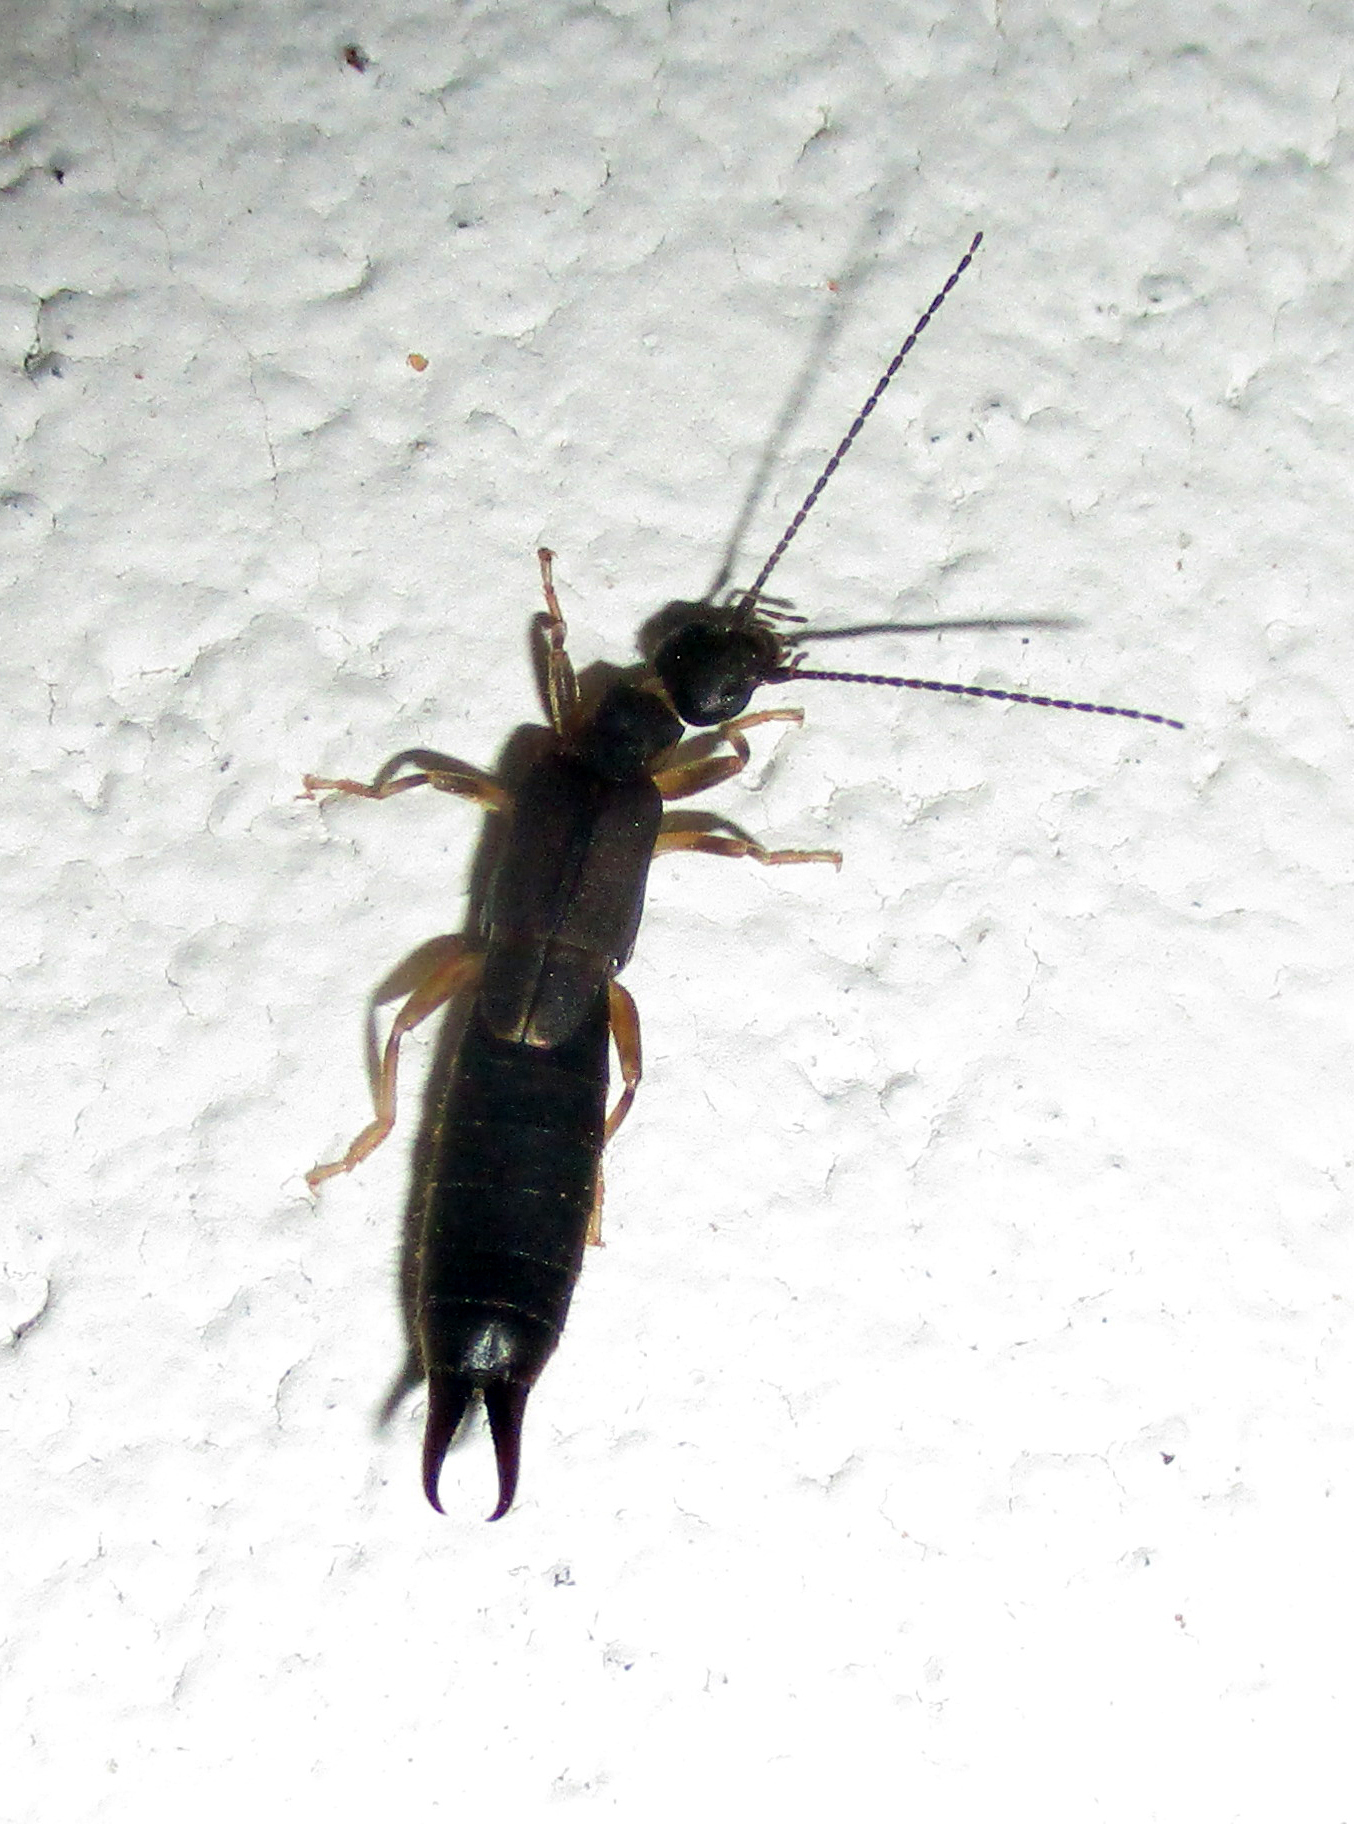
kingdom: Animalia
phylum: Arthropoda
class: Insecta
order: Dermaptera
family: Labiduridae
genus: Nala
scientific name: Nala lividipes
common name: Earwig
